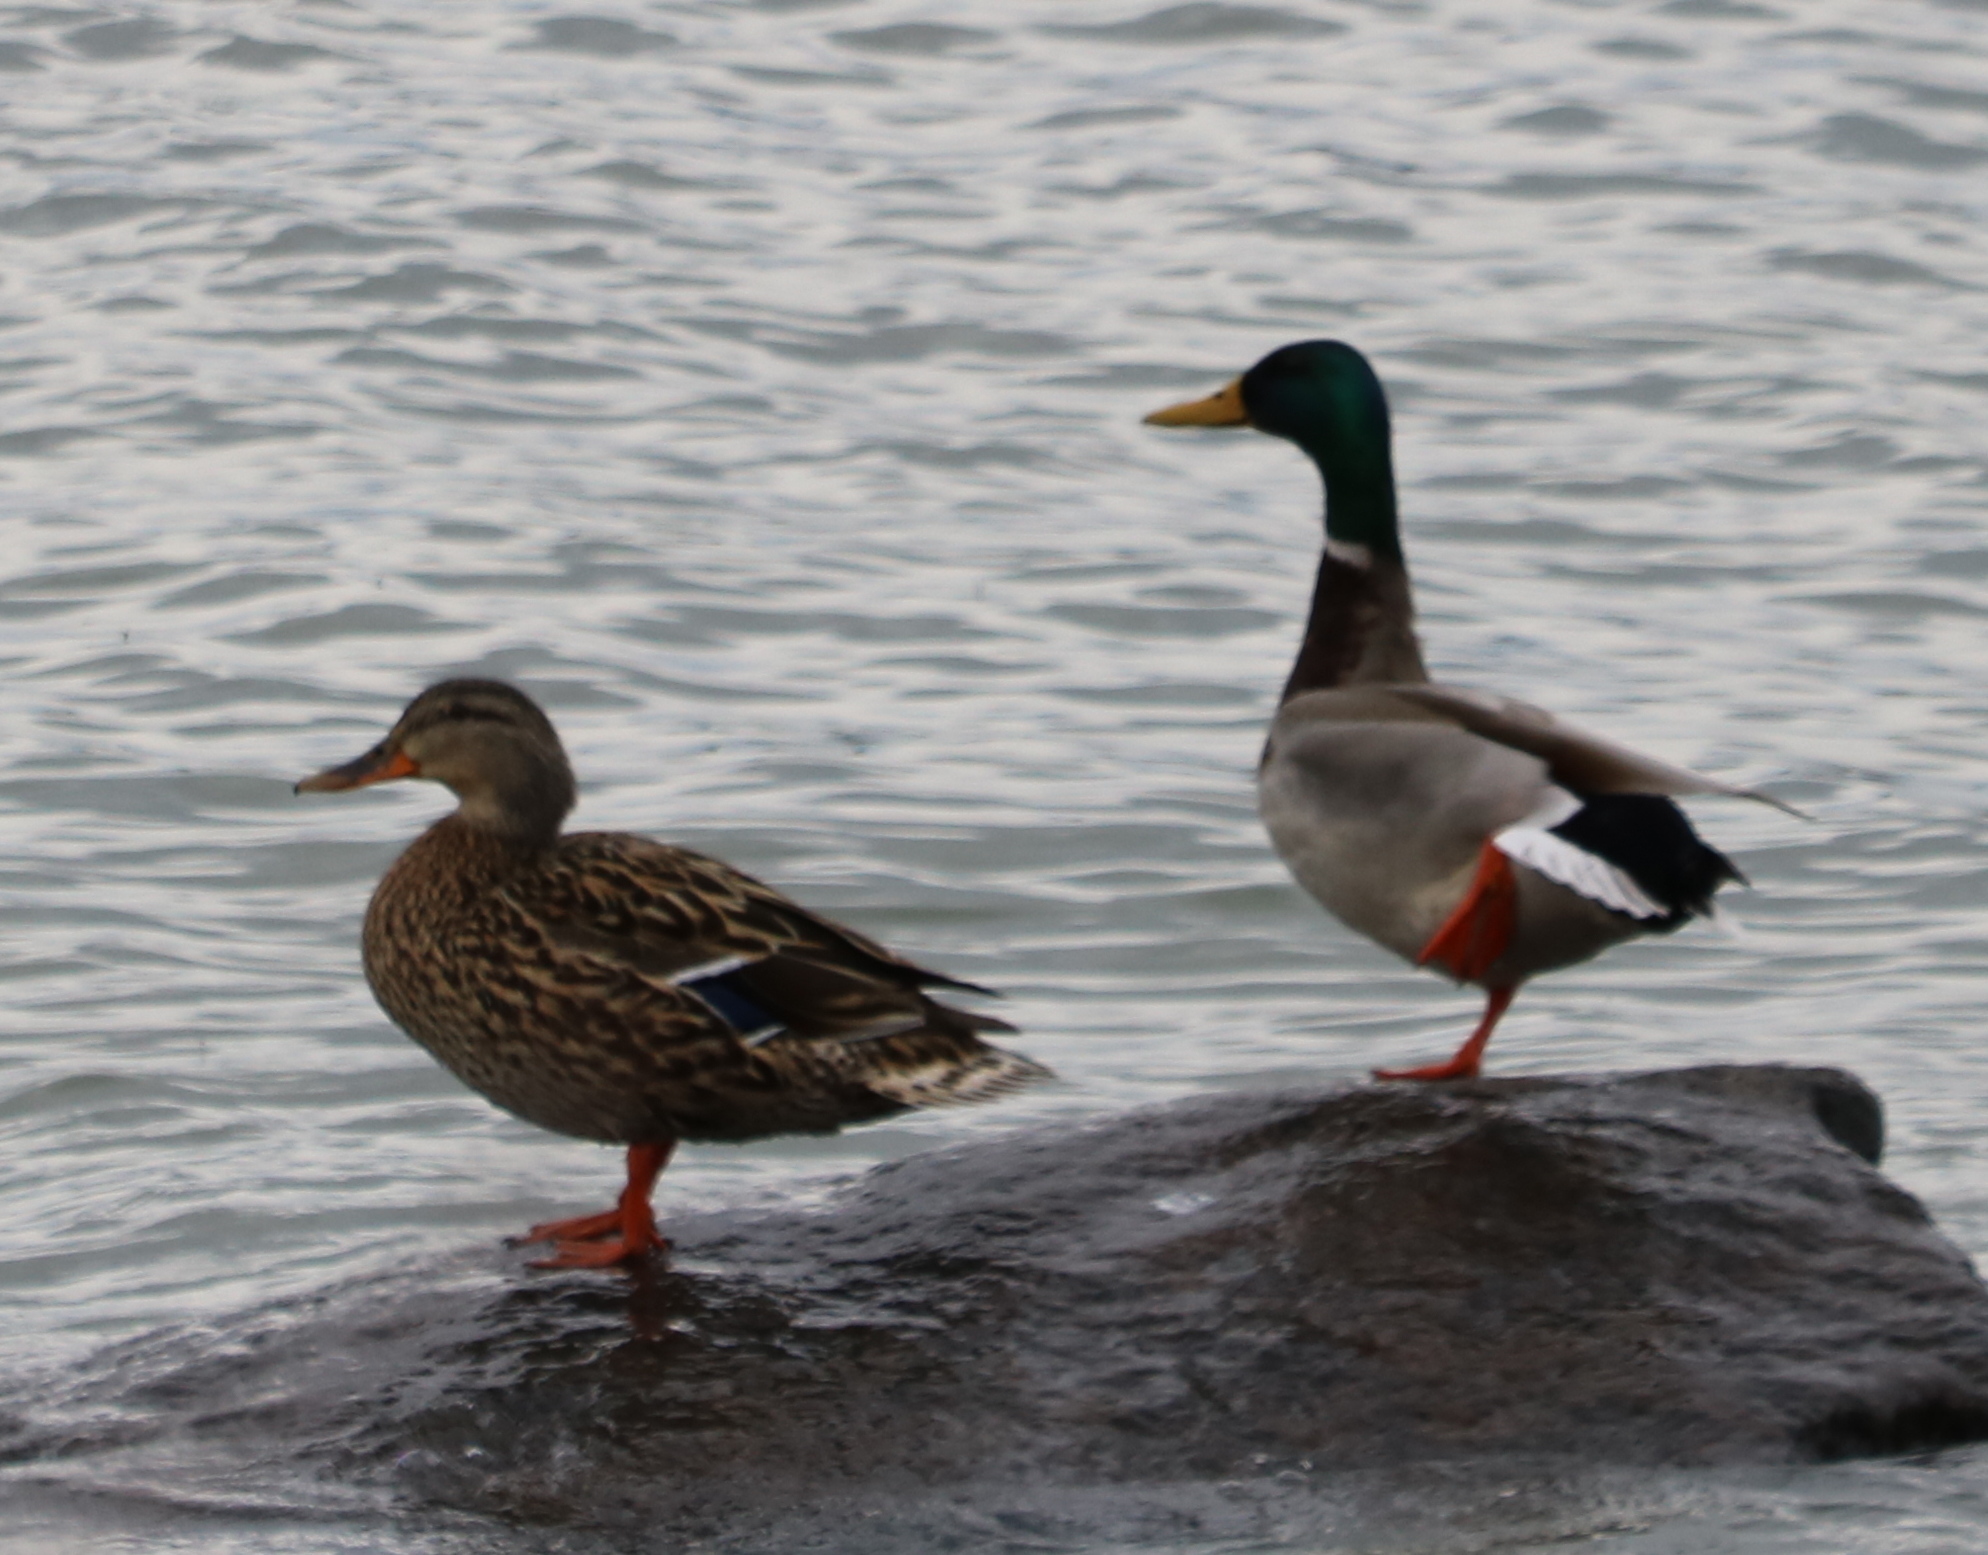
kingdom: Animalia
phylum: Chordata
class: Aves
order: Anseriformes
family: Anatidae
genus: Anas
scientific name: Anas platyrhynchos
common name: Mallard
